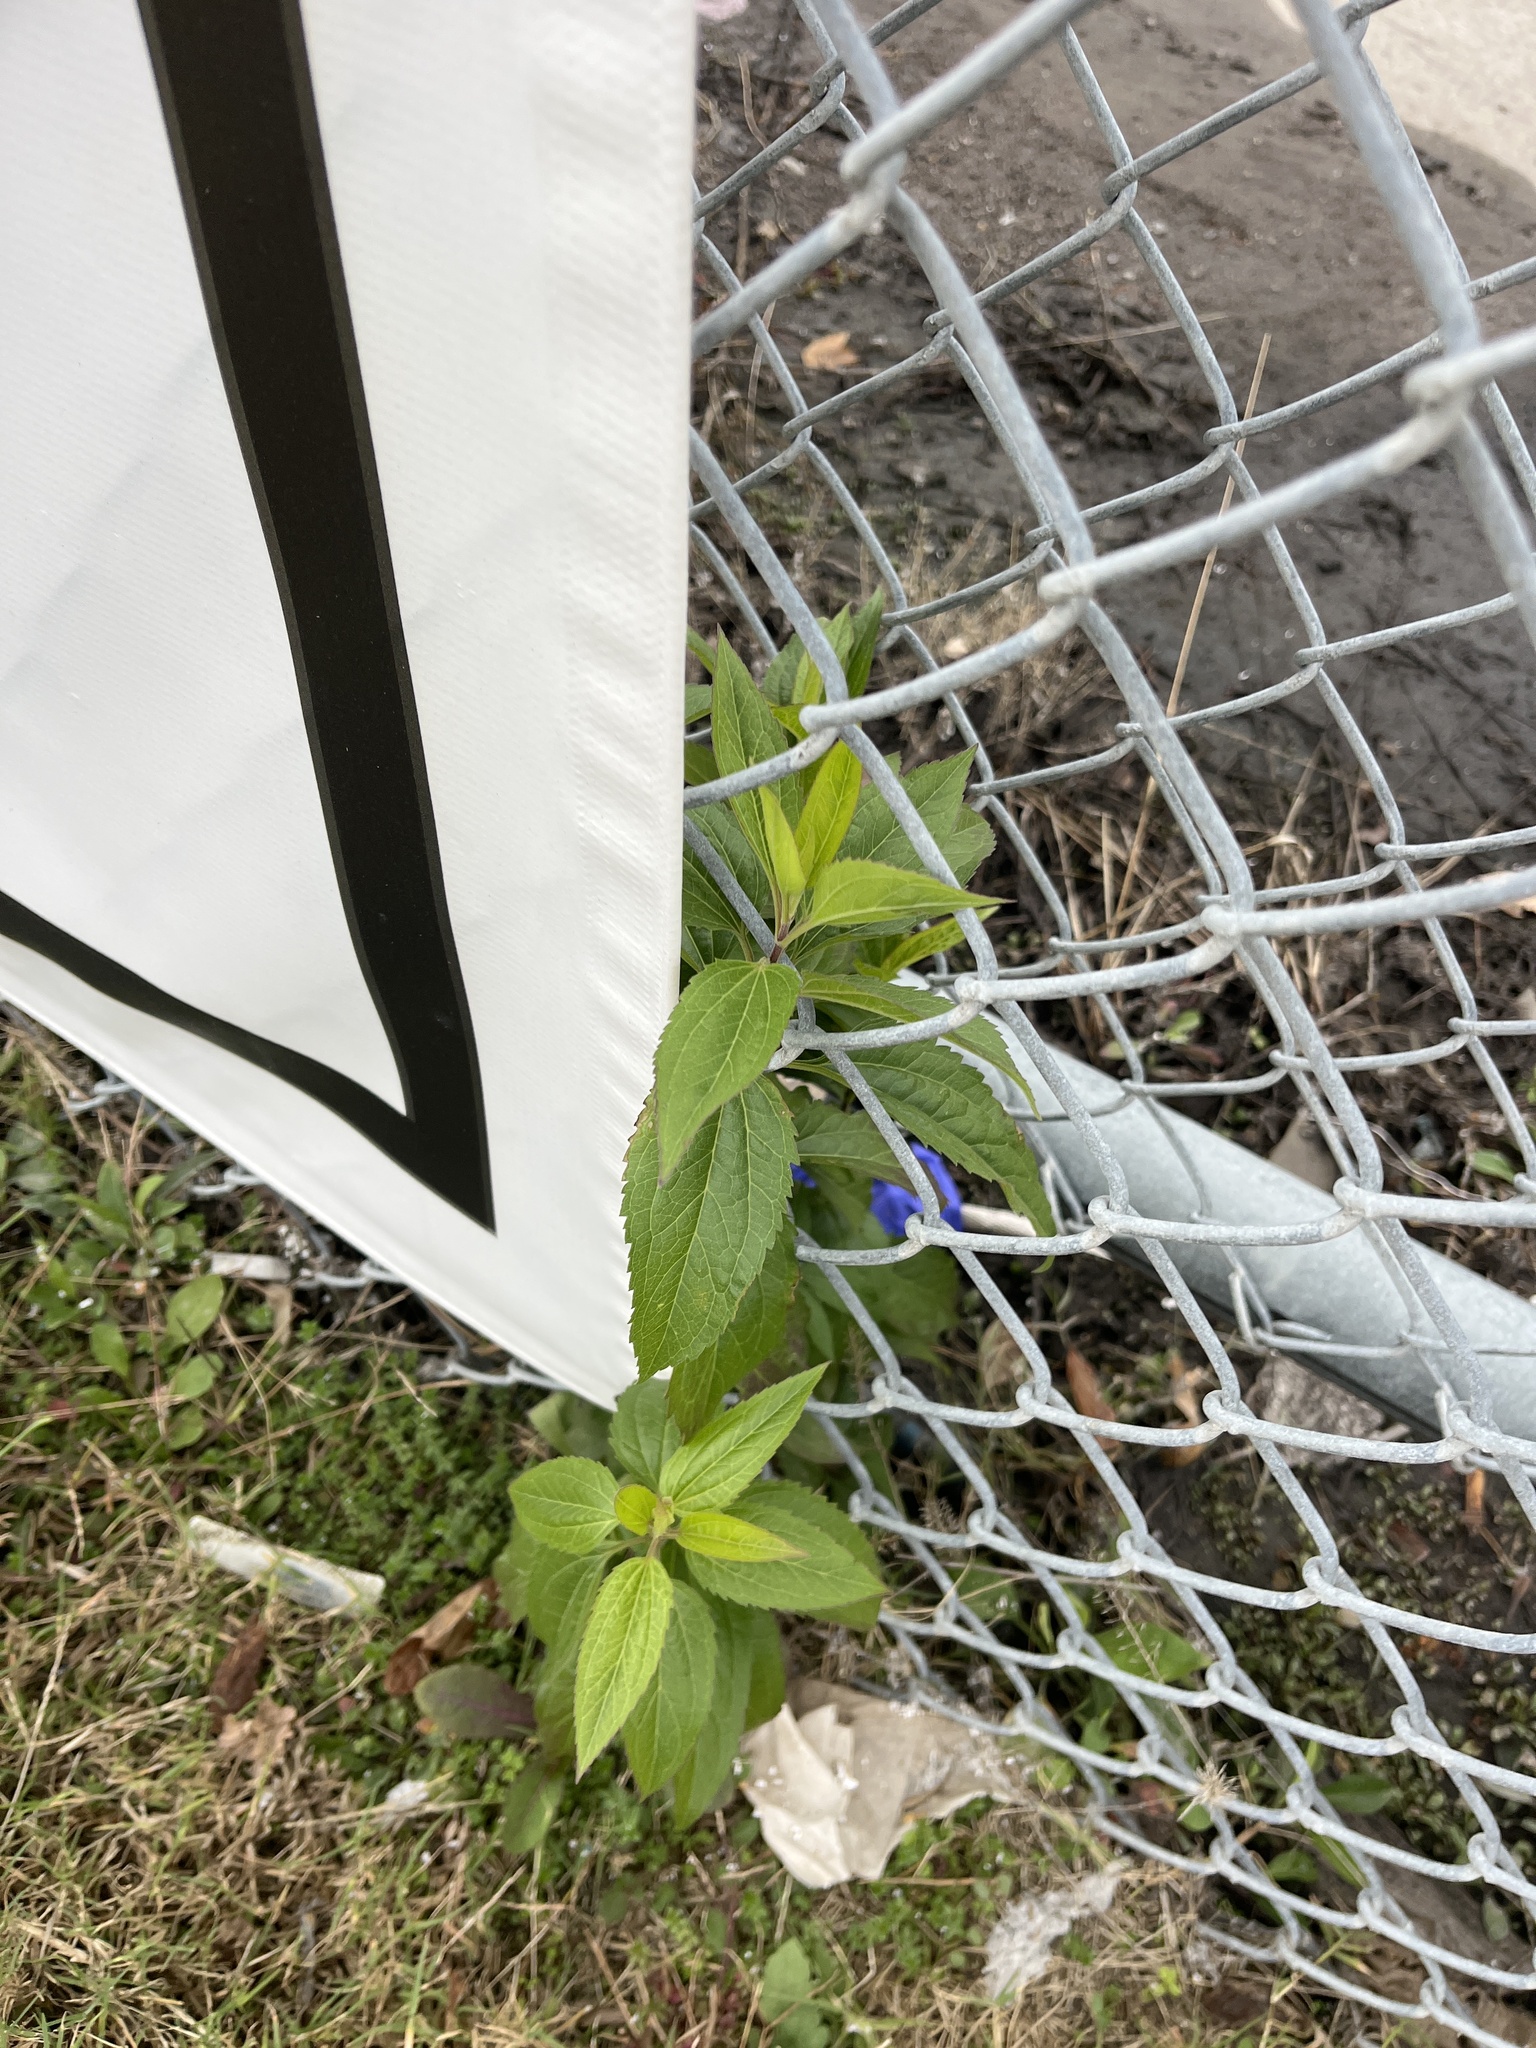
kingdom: Plantae
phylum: Tracheophyta
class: Magnoliopsida
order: Asterales
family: Asteraceae
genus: Eupatorium
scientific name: Eupatorium serotinum
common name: Late boneset
